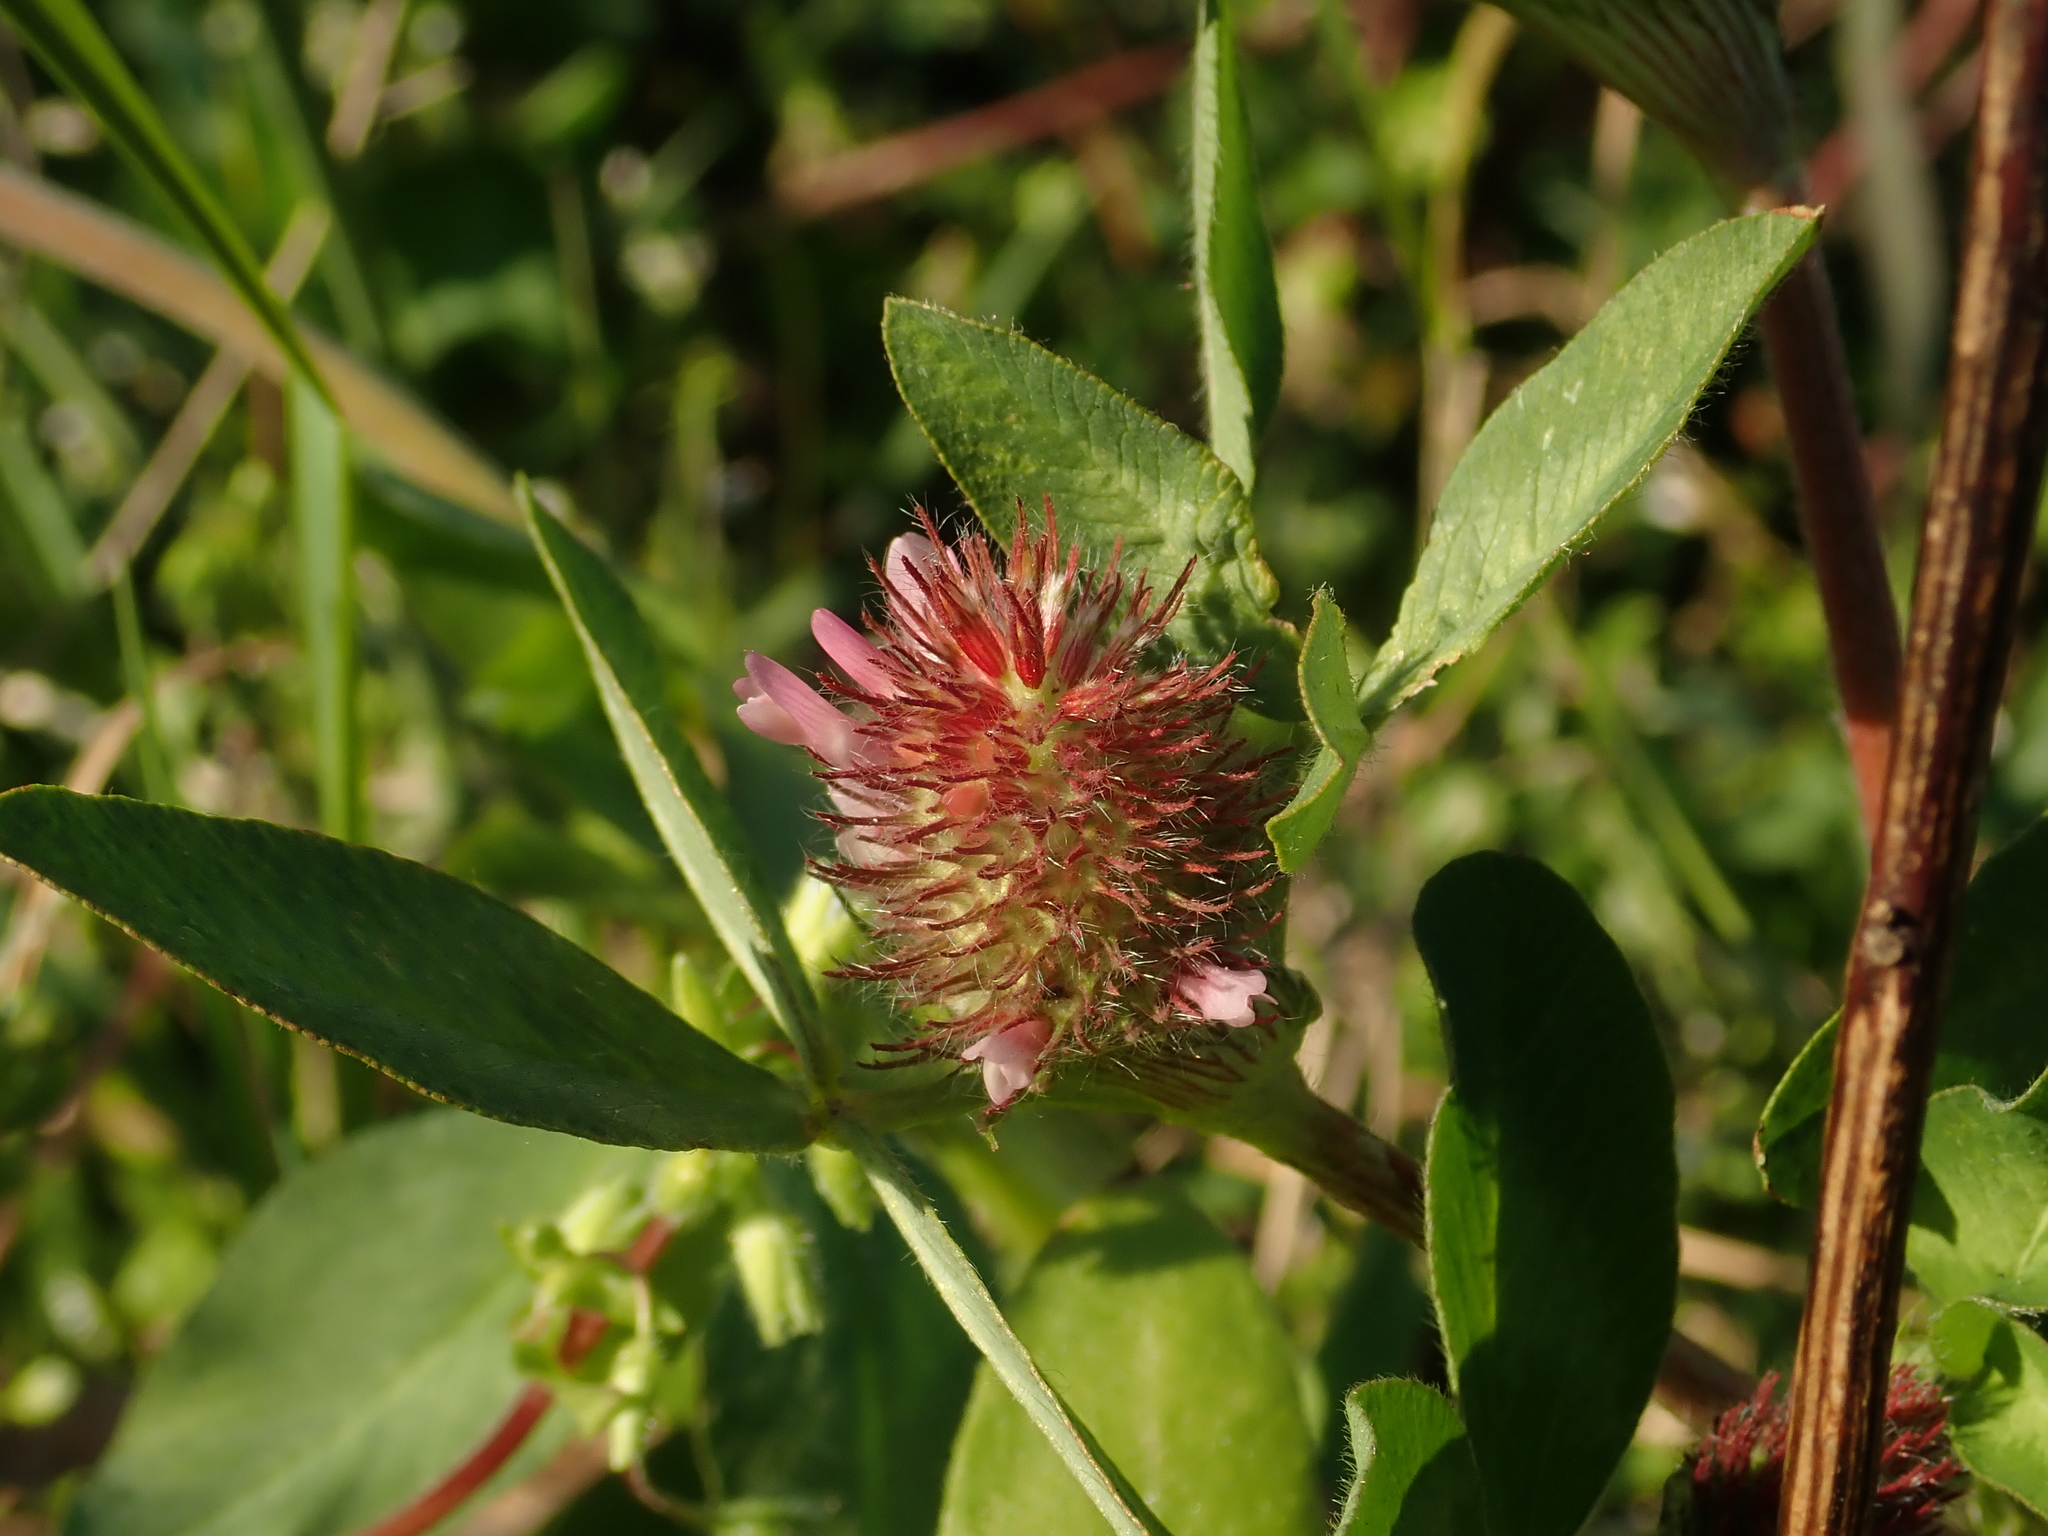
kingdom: Plantae
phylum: Tracheophyta
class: Magnoliopsida
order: Fabales
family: Fabaceae
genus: Trifolium
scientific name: Trifolium incarnatum
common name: Crimson clover
